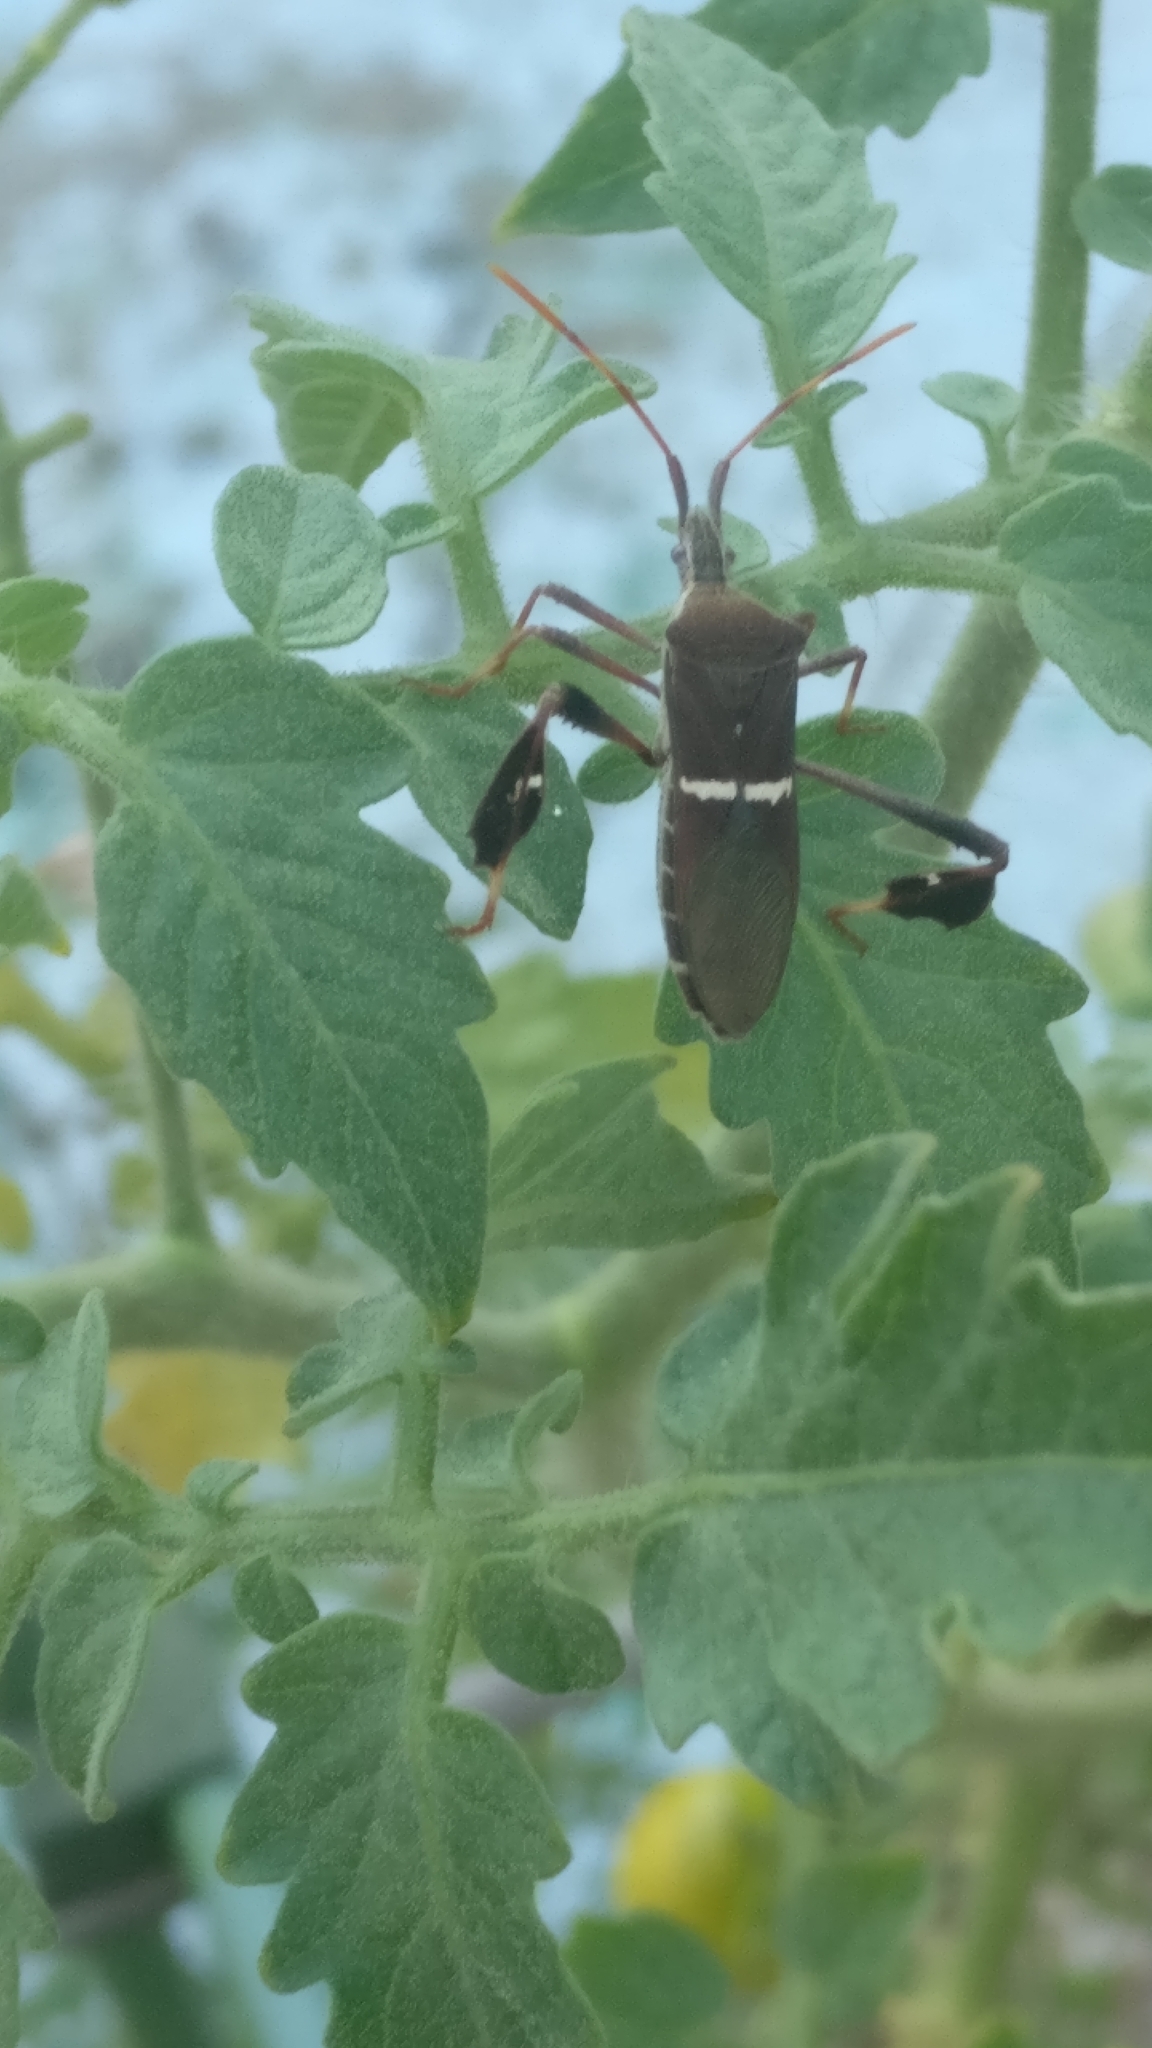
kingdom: Animalia
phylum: Arthropoda
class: Insecta
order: Hemiptera
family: Coreidae
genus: Leptoglossus
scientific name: Leptoglossus phyllopus
